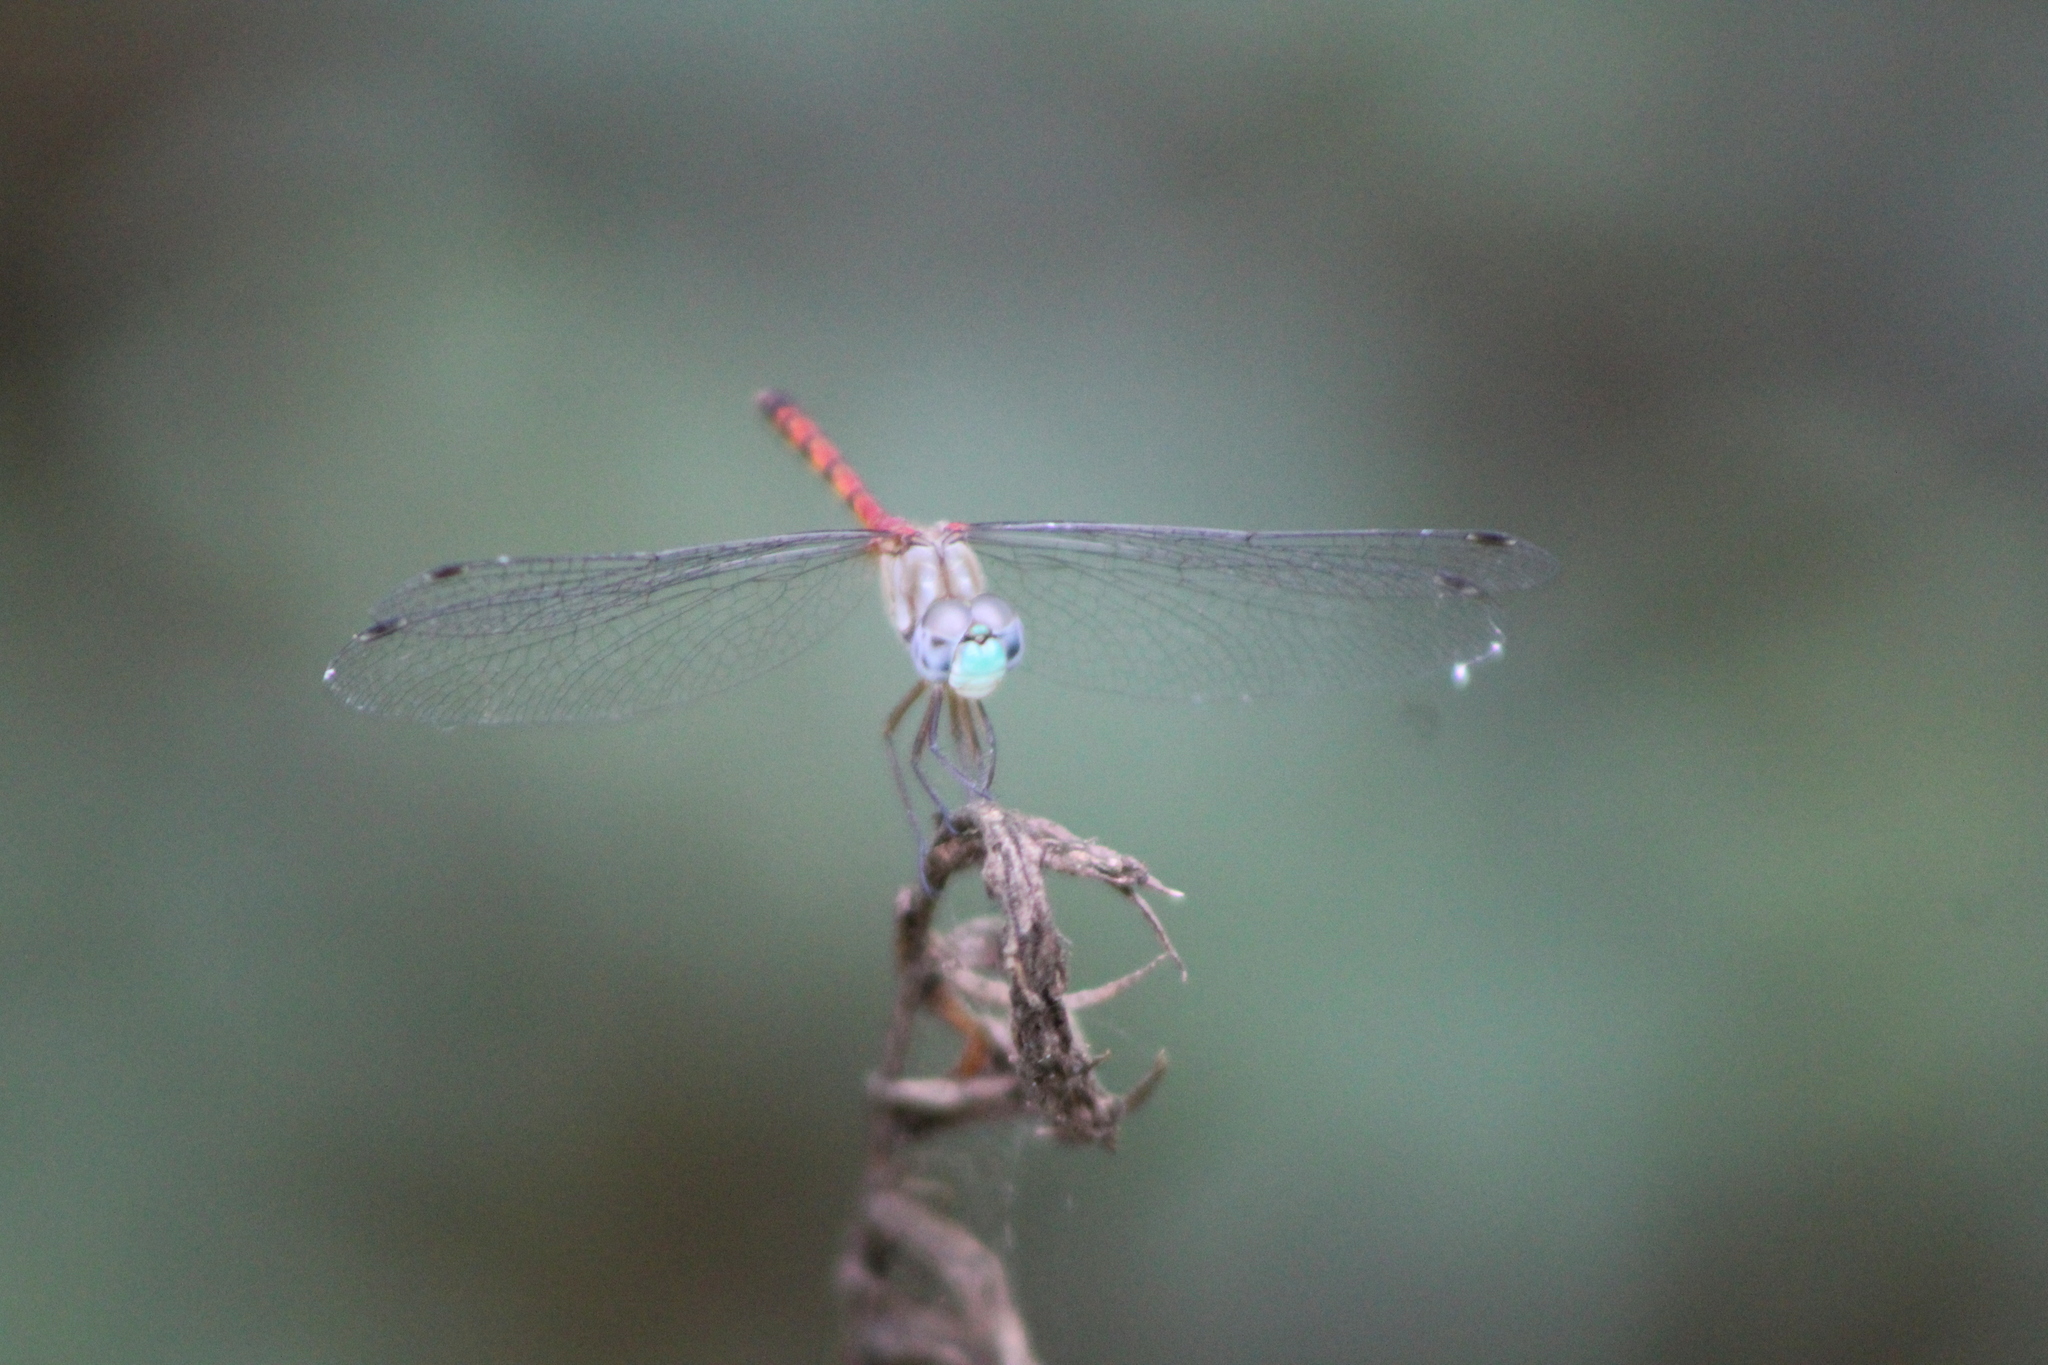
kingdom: Animalia
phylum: Arthropoda
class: Insecta
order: Odonata
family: Libellulidae
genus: Sympetrum
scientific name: Sympetrum ambiguum
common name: Blue-faced meadowhawk
